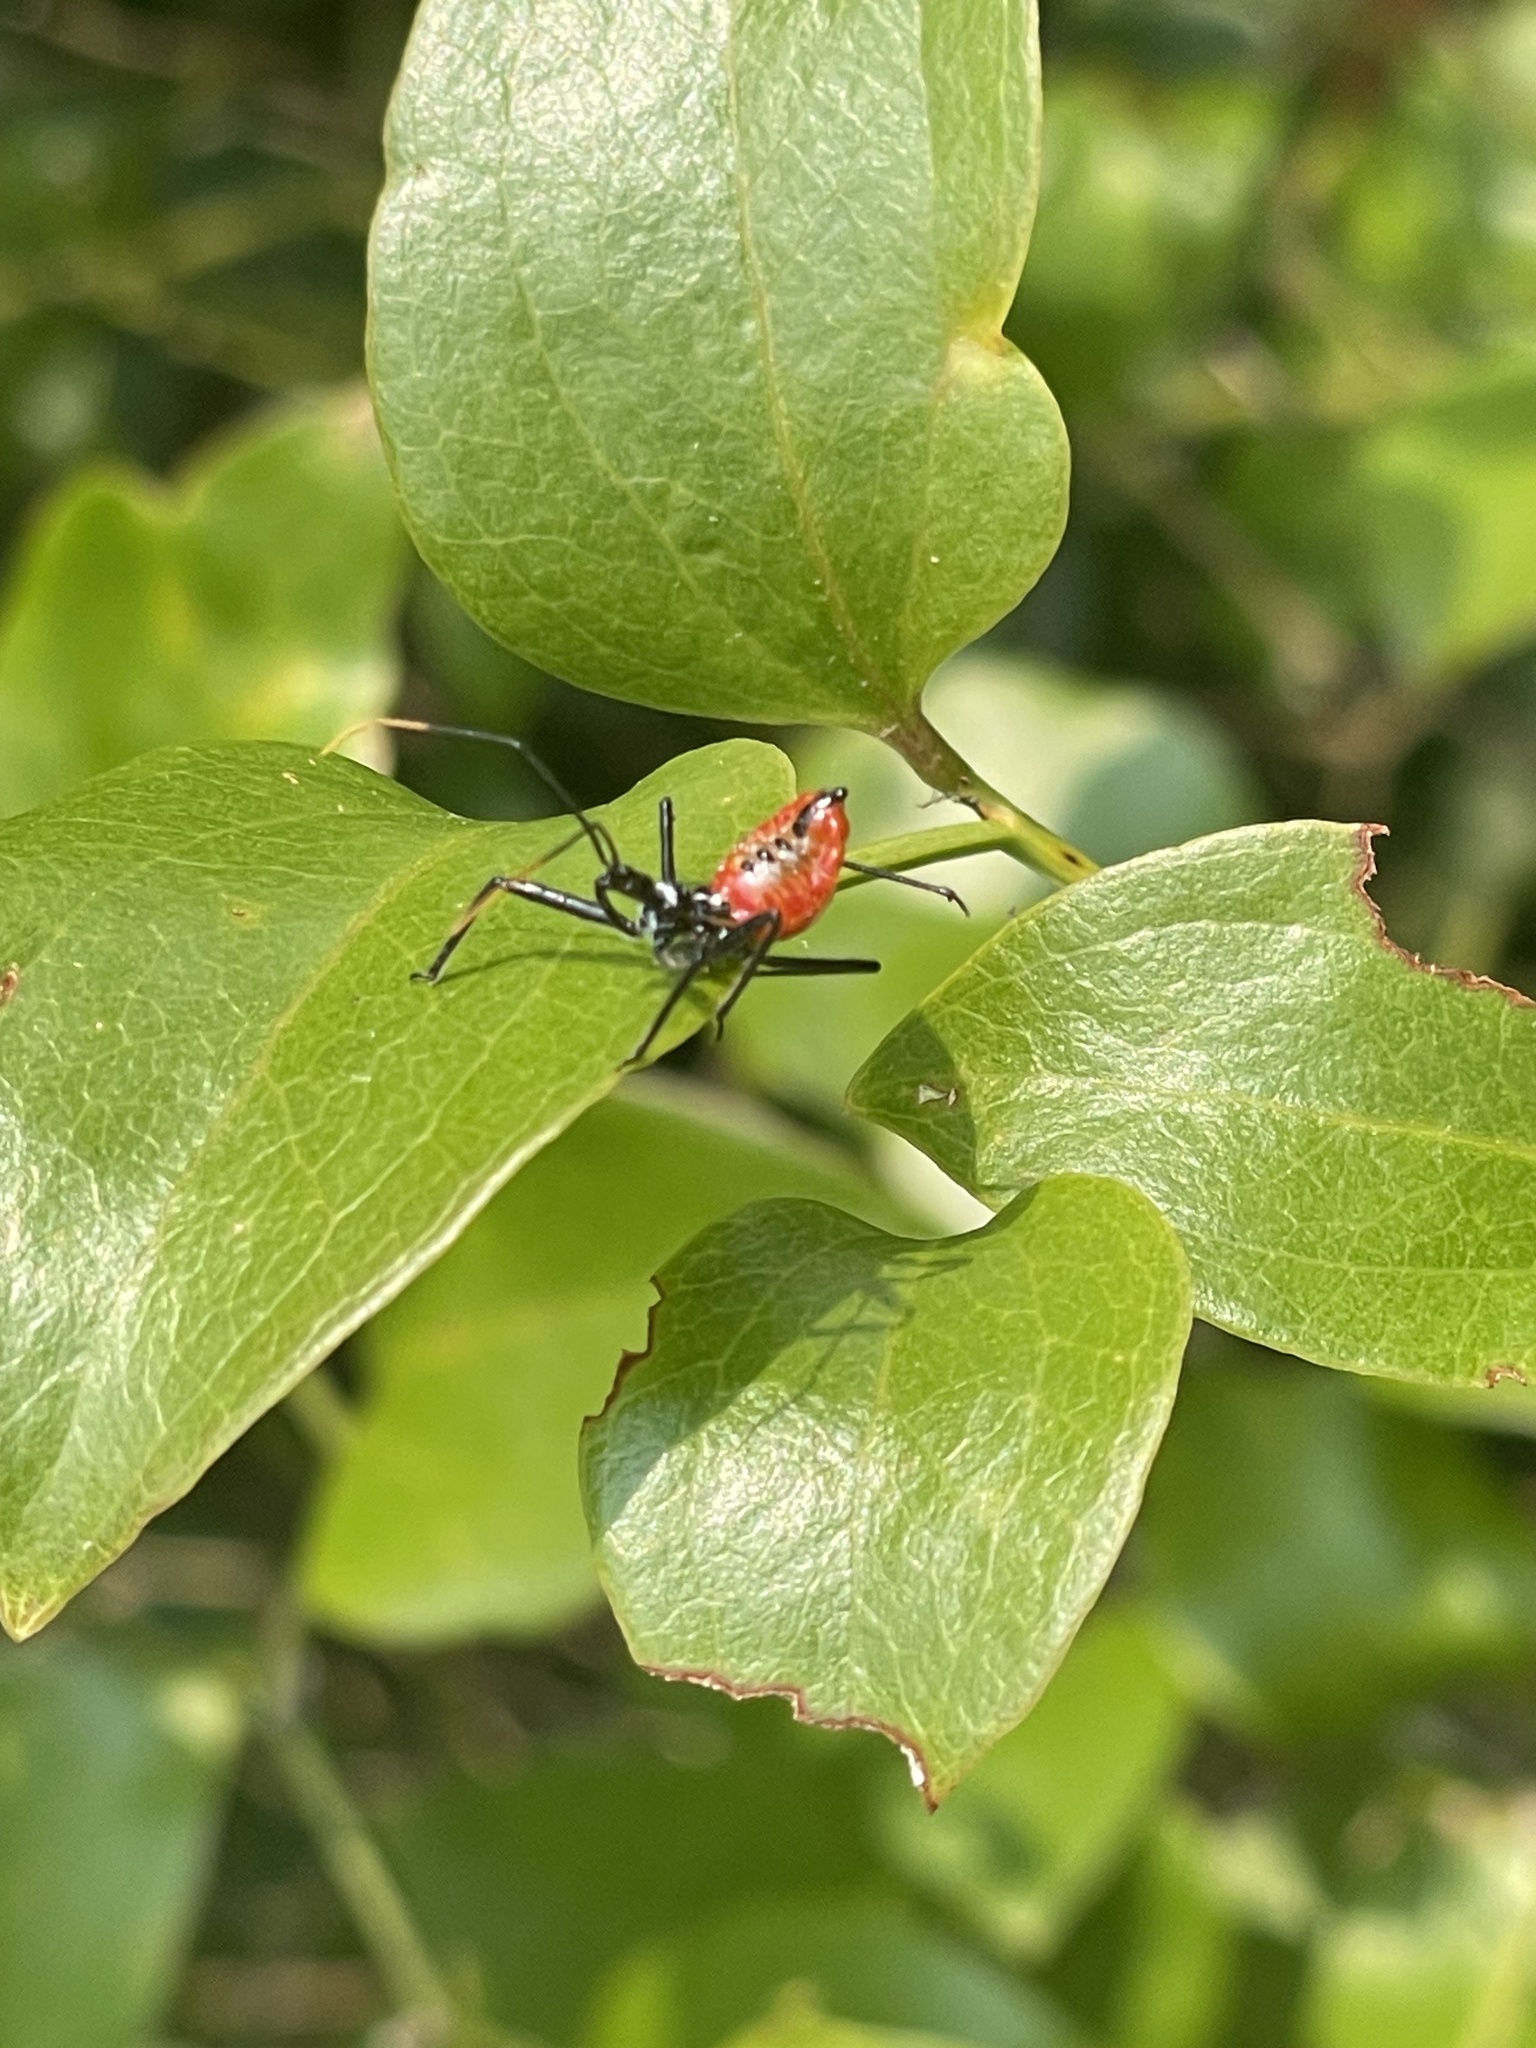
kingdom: Animalia
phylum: Arthropoda
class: Insecta
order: Hemiptera
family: Reduviidae
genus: Arilus
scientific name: Arilus cristatus
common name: North american wheel bug
